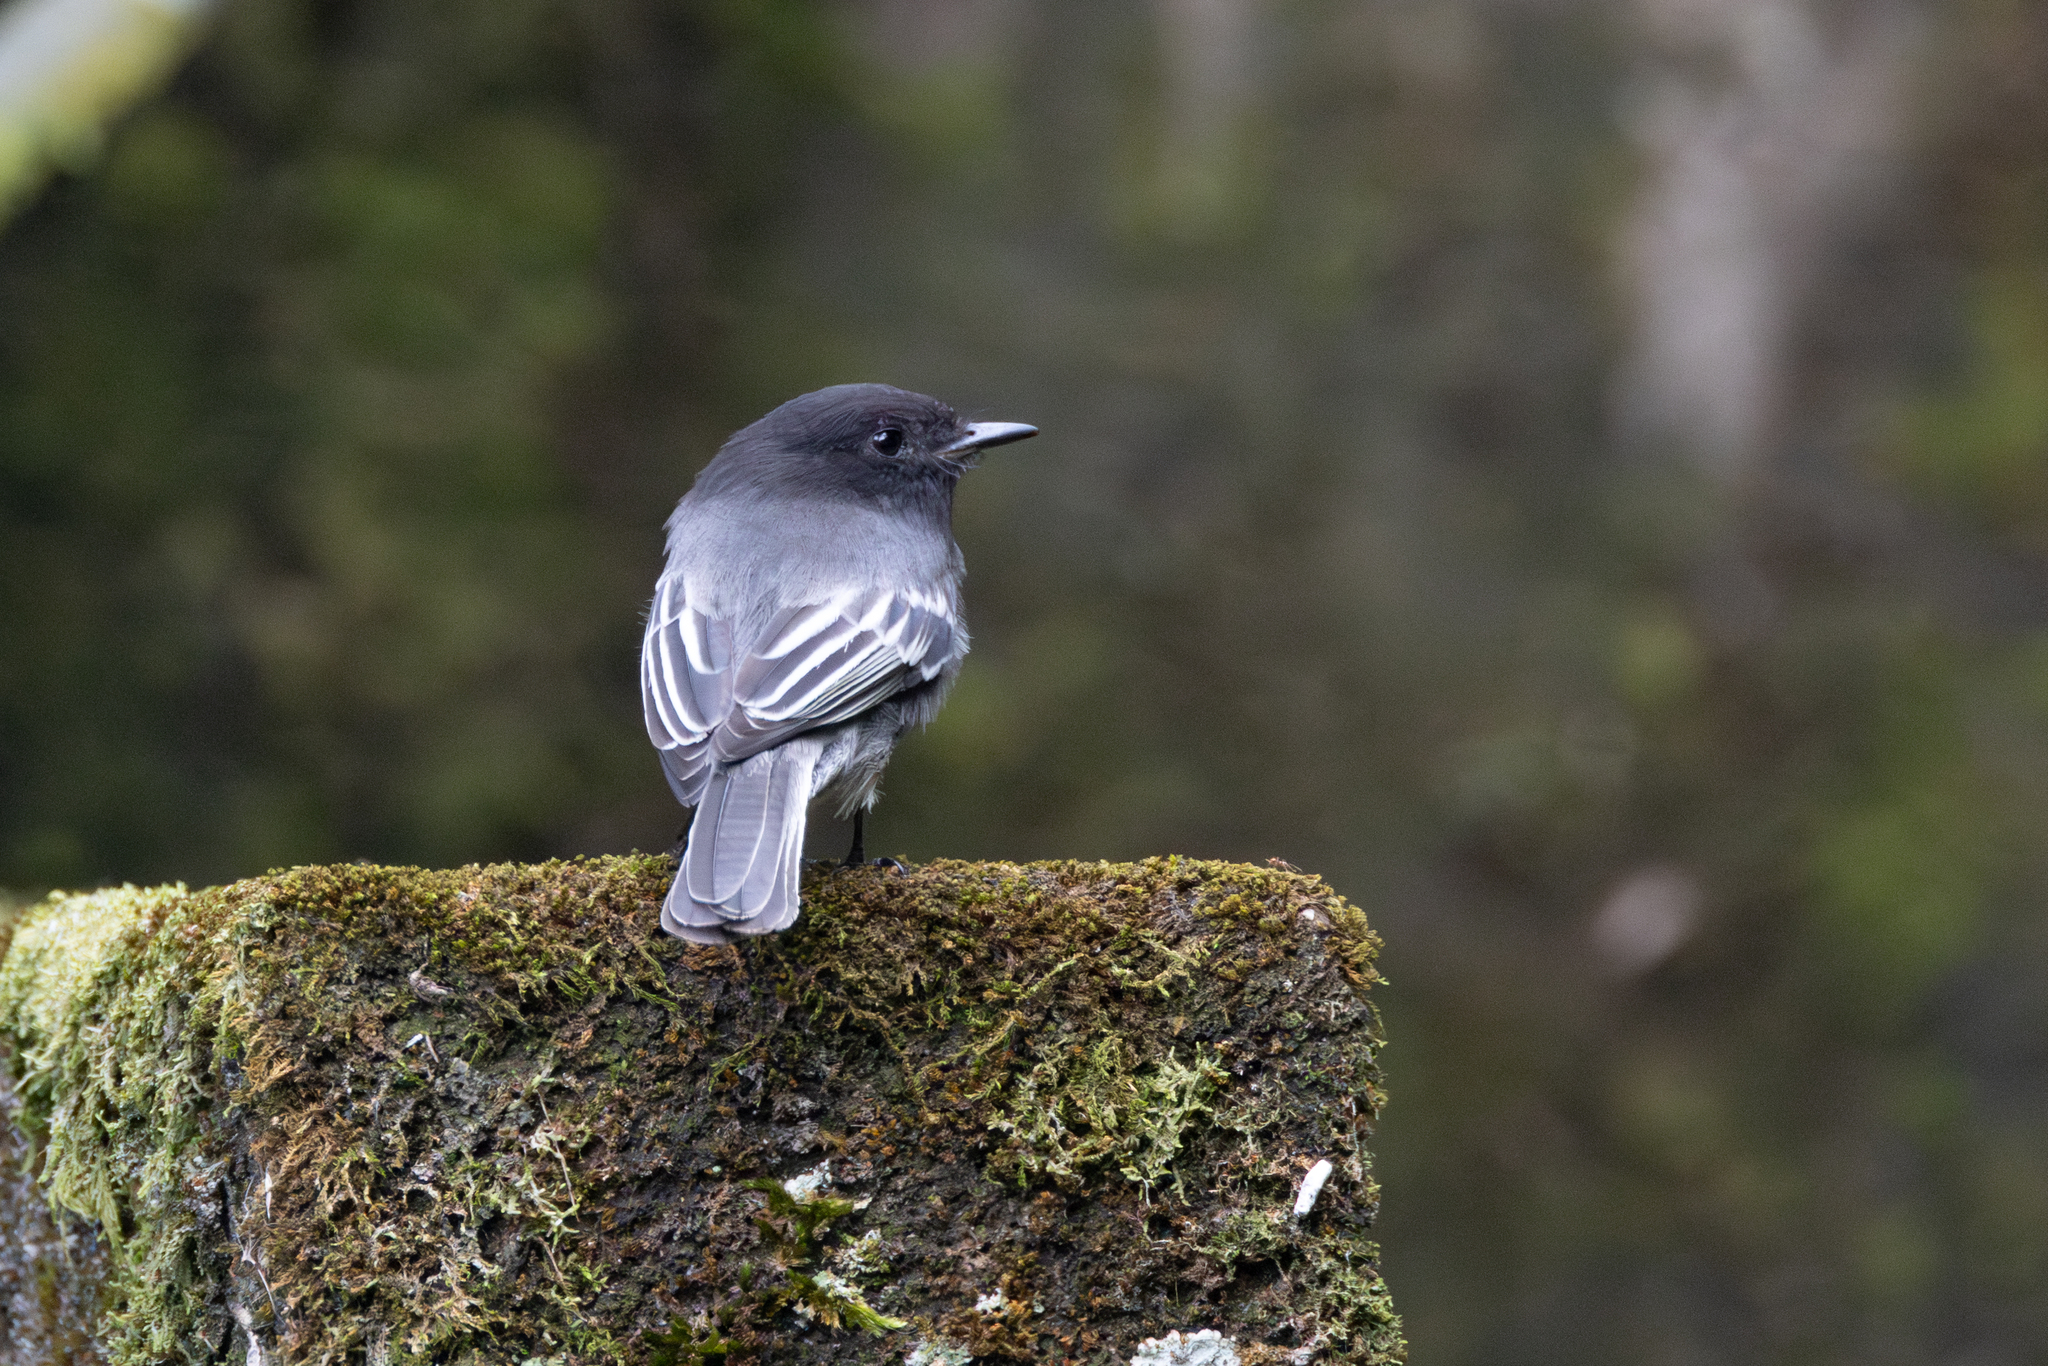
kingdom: Animalia
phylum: Chordata
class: Aves
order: Passeriformes
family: Tyrannidae
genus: Sayornis
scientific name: Sayornis nigricans
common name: Black phoebe
